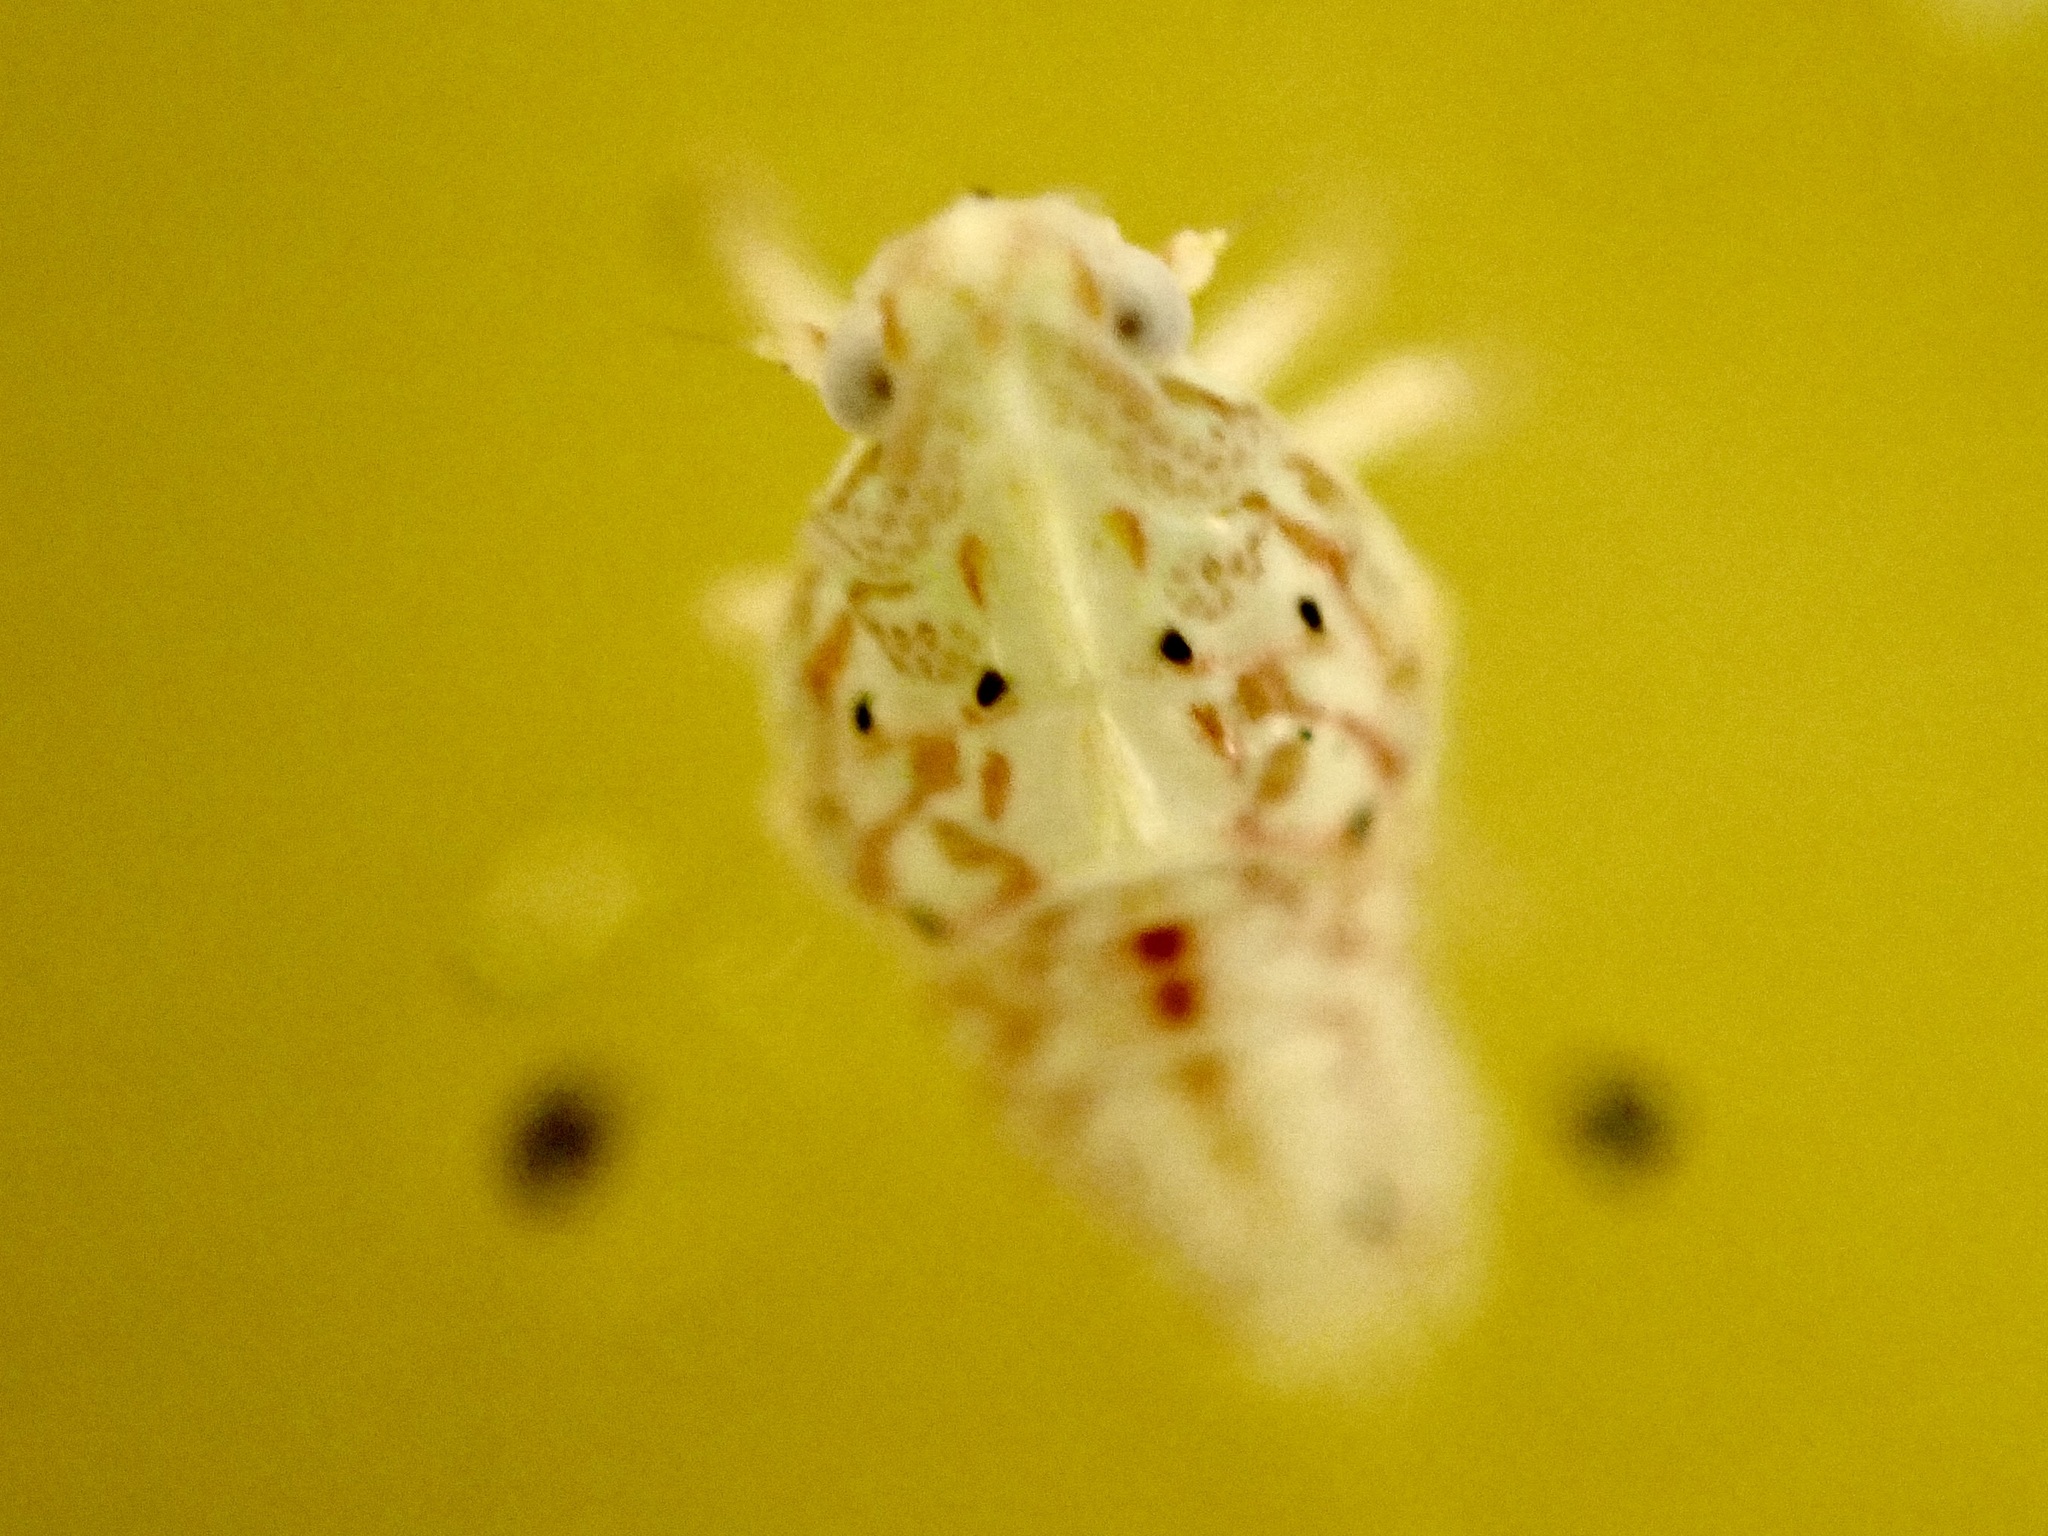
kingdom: Animalia
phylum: Arthropoda
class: Insecta
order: Hemiptera
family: Flatidae
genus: Siphanta
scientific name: Siphanta acuta
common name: Torpedo bug
